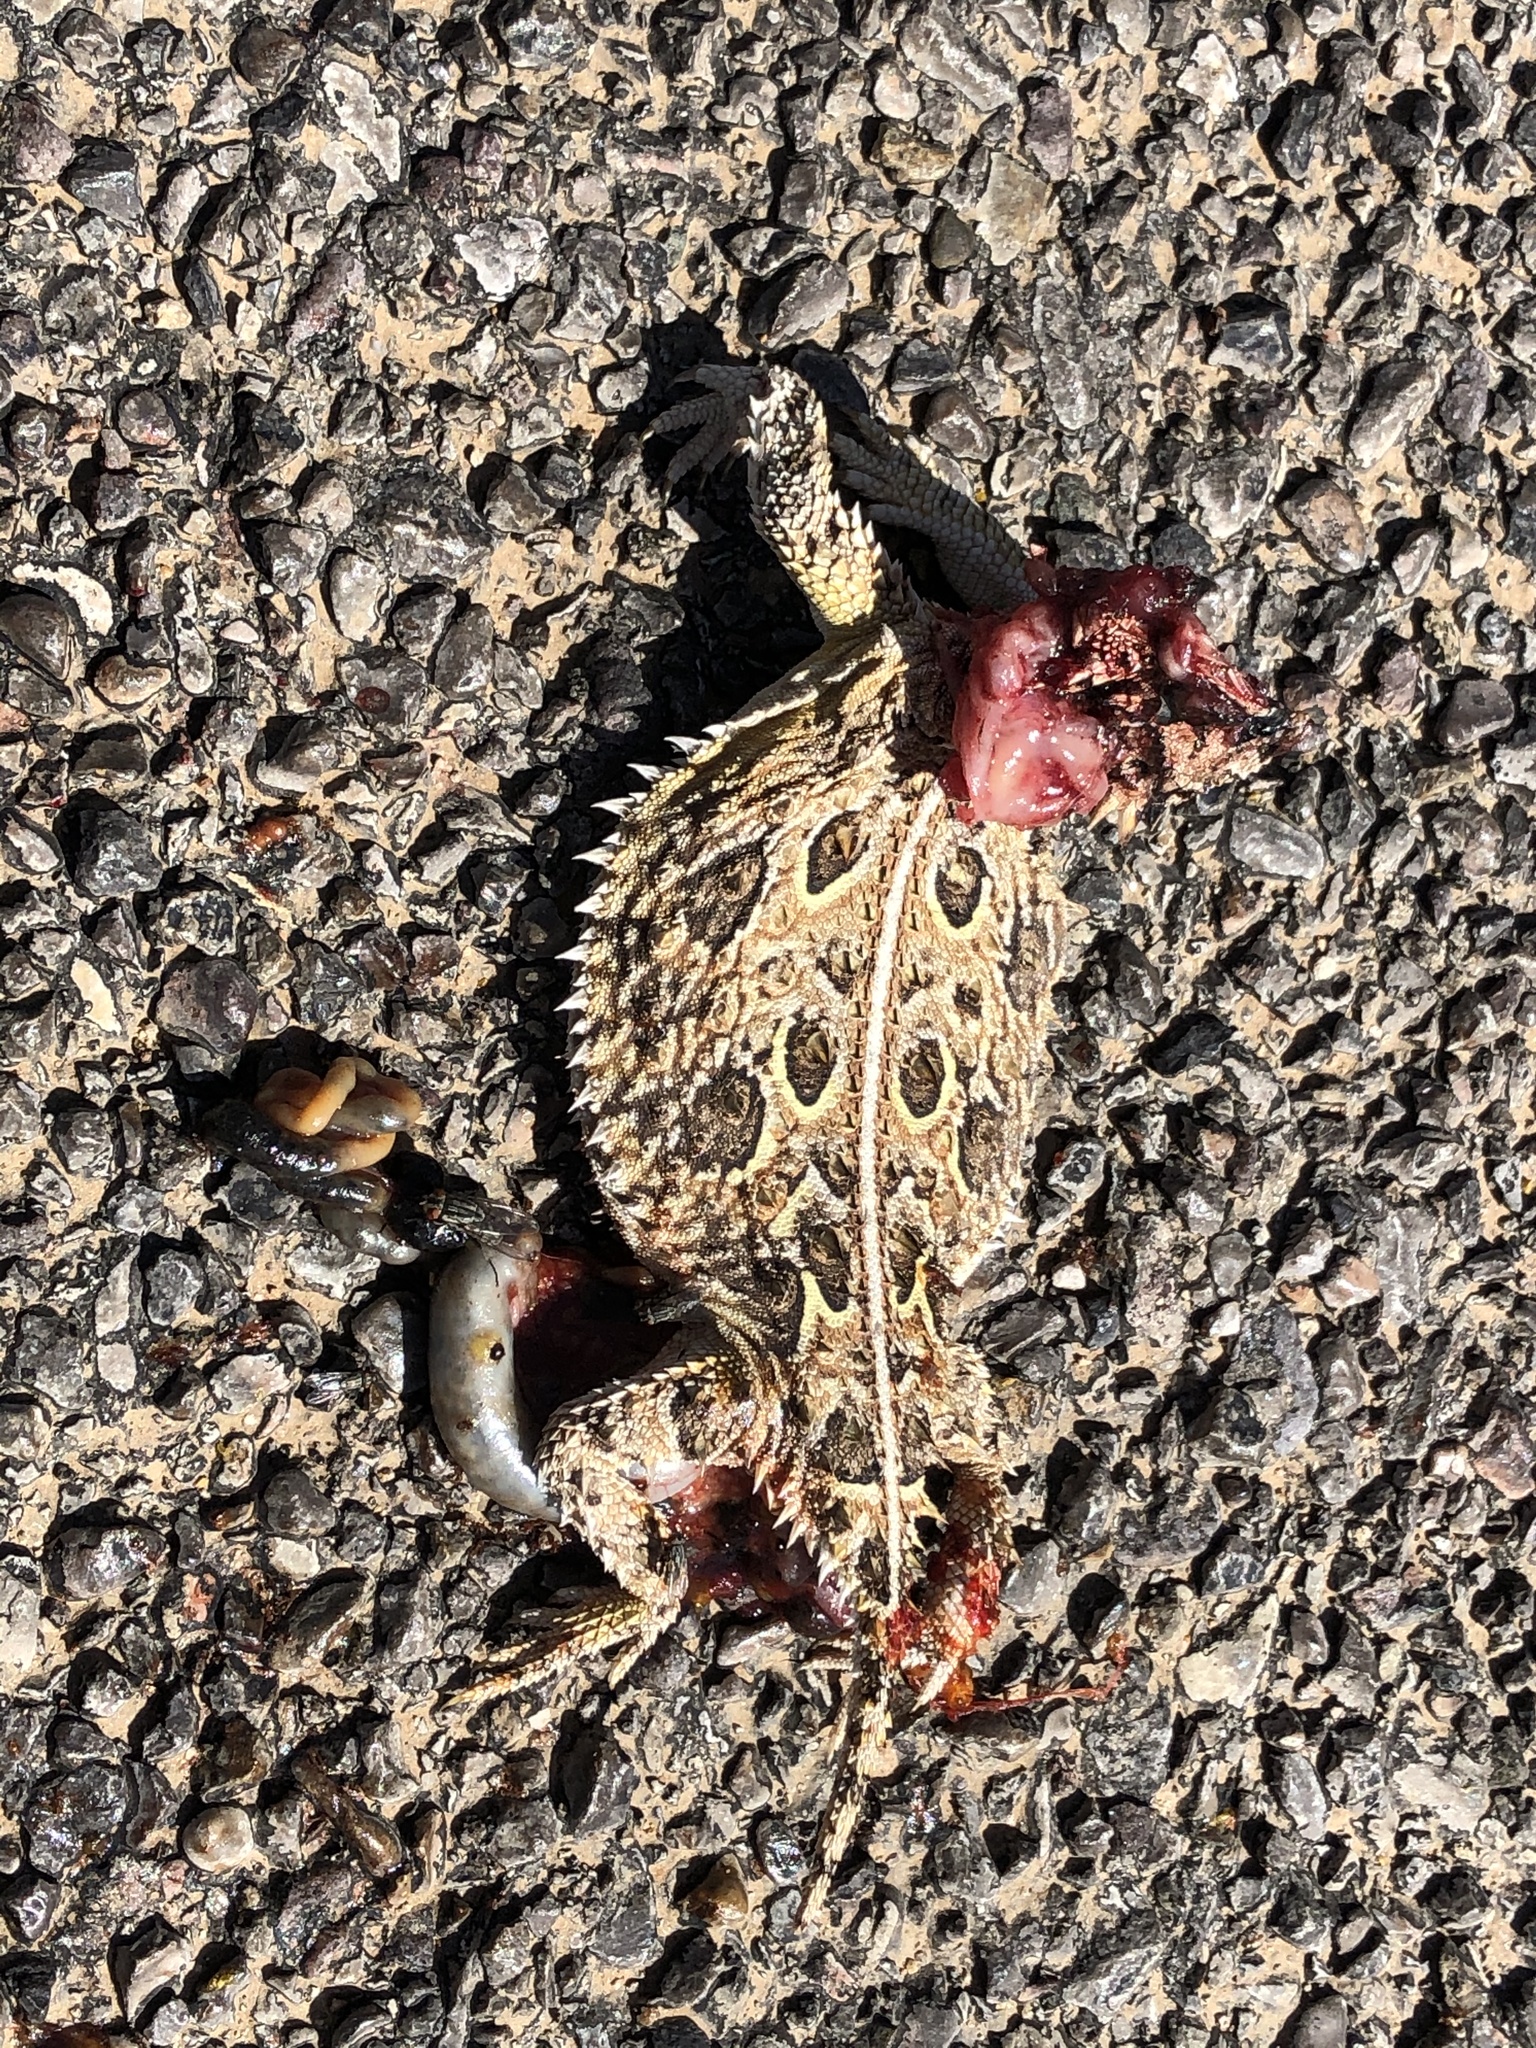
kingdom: Animalia
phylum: Chordata
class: Squamata
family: Phrynosomatidae
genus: Phrynosoma
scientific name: Phrynosoma cornutum
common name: Texas horned lizard
